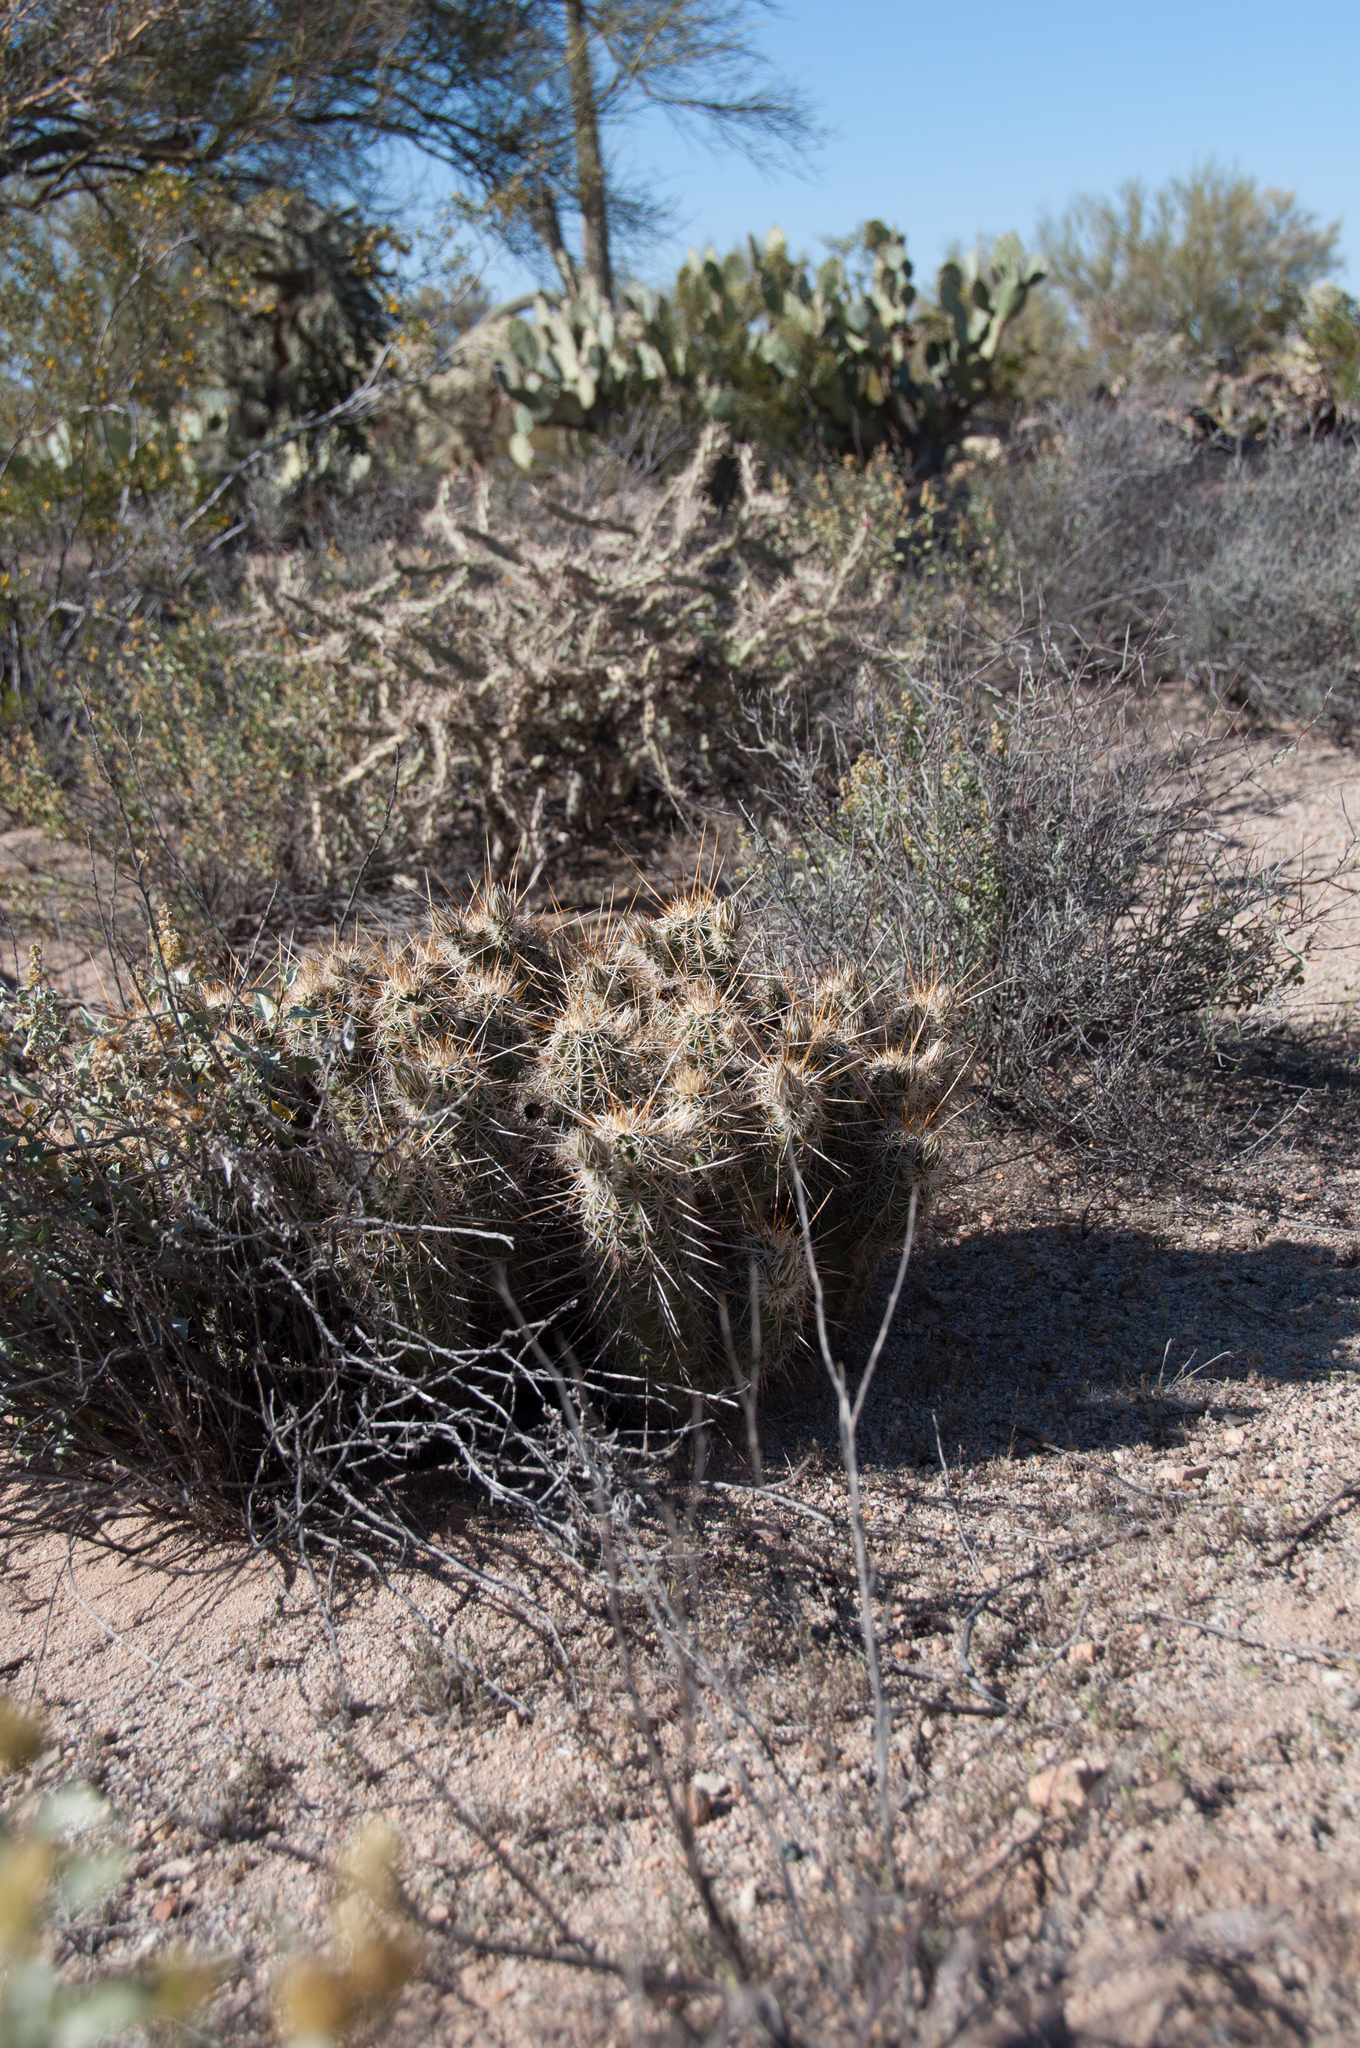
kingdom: Plantae
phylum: Tracheophyta
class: Magnoliopsida
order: Caryophyllales
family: Cactaceae
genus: Echinocereus
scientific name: Echinocereus fasciculatus
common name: Bundle hedgehog
